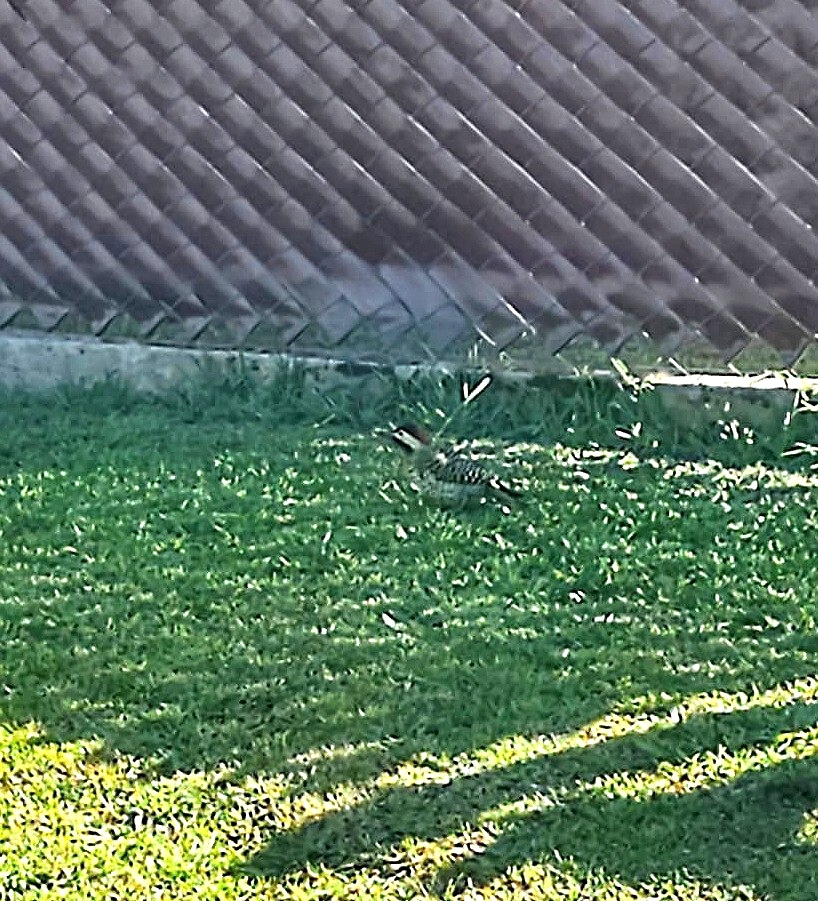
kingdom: Animalia
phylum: Chordata
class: Aves
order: Piciformes
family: Picidae
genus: Colaptes
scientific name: Colaptes melanochloros
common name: Green-barred woodpecker
